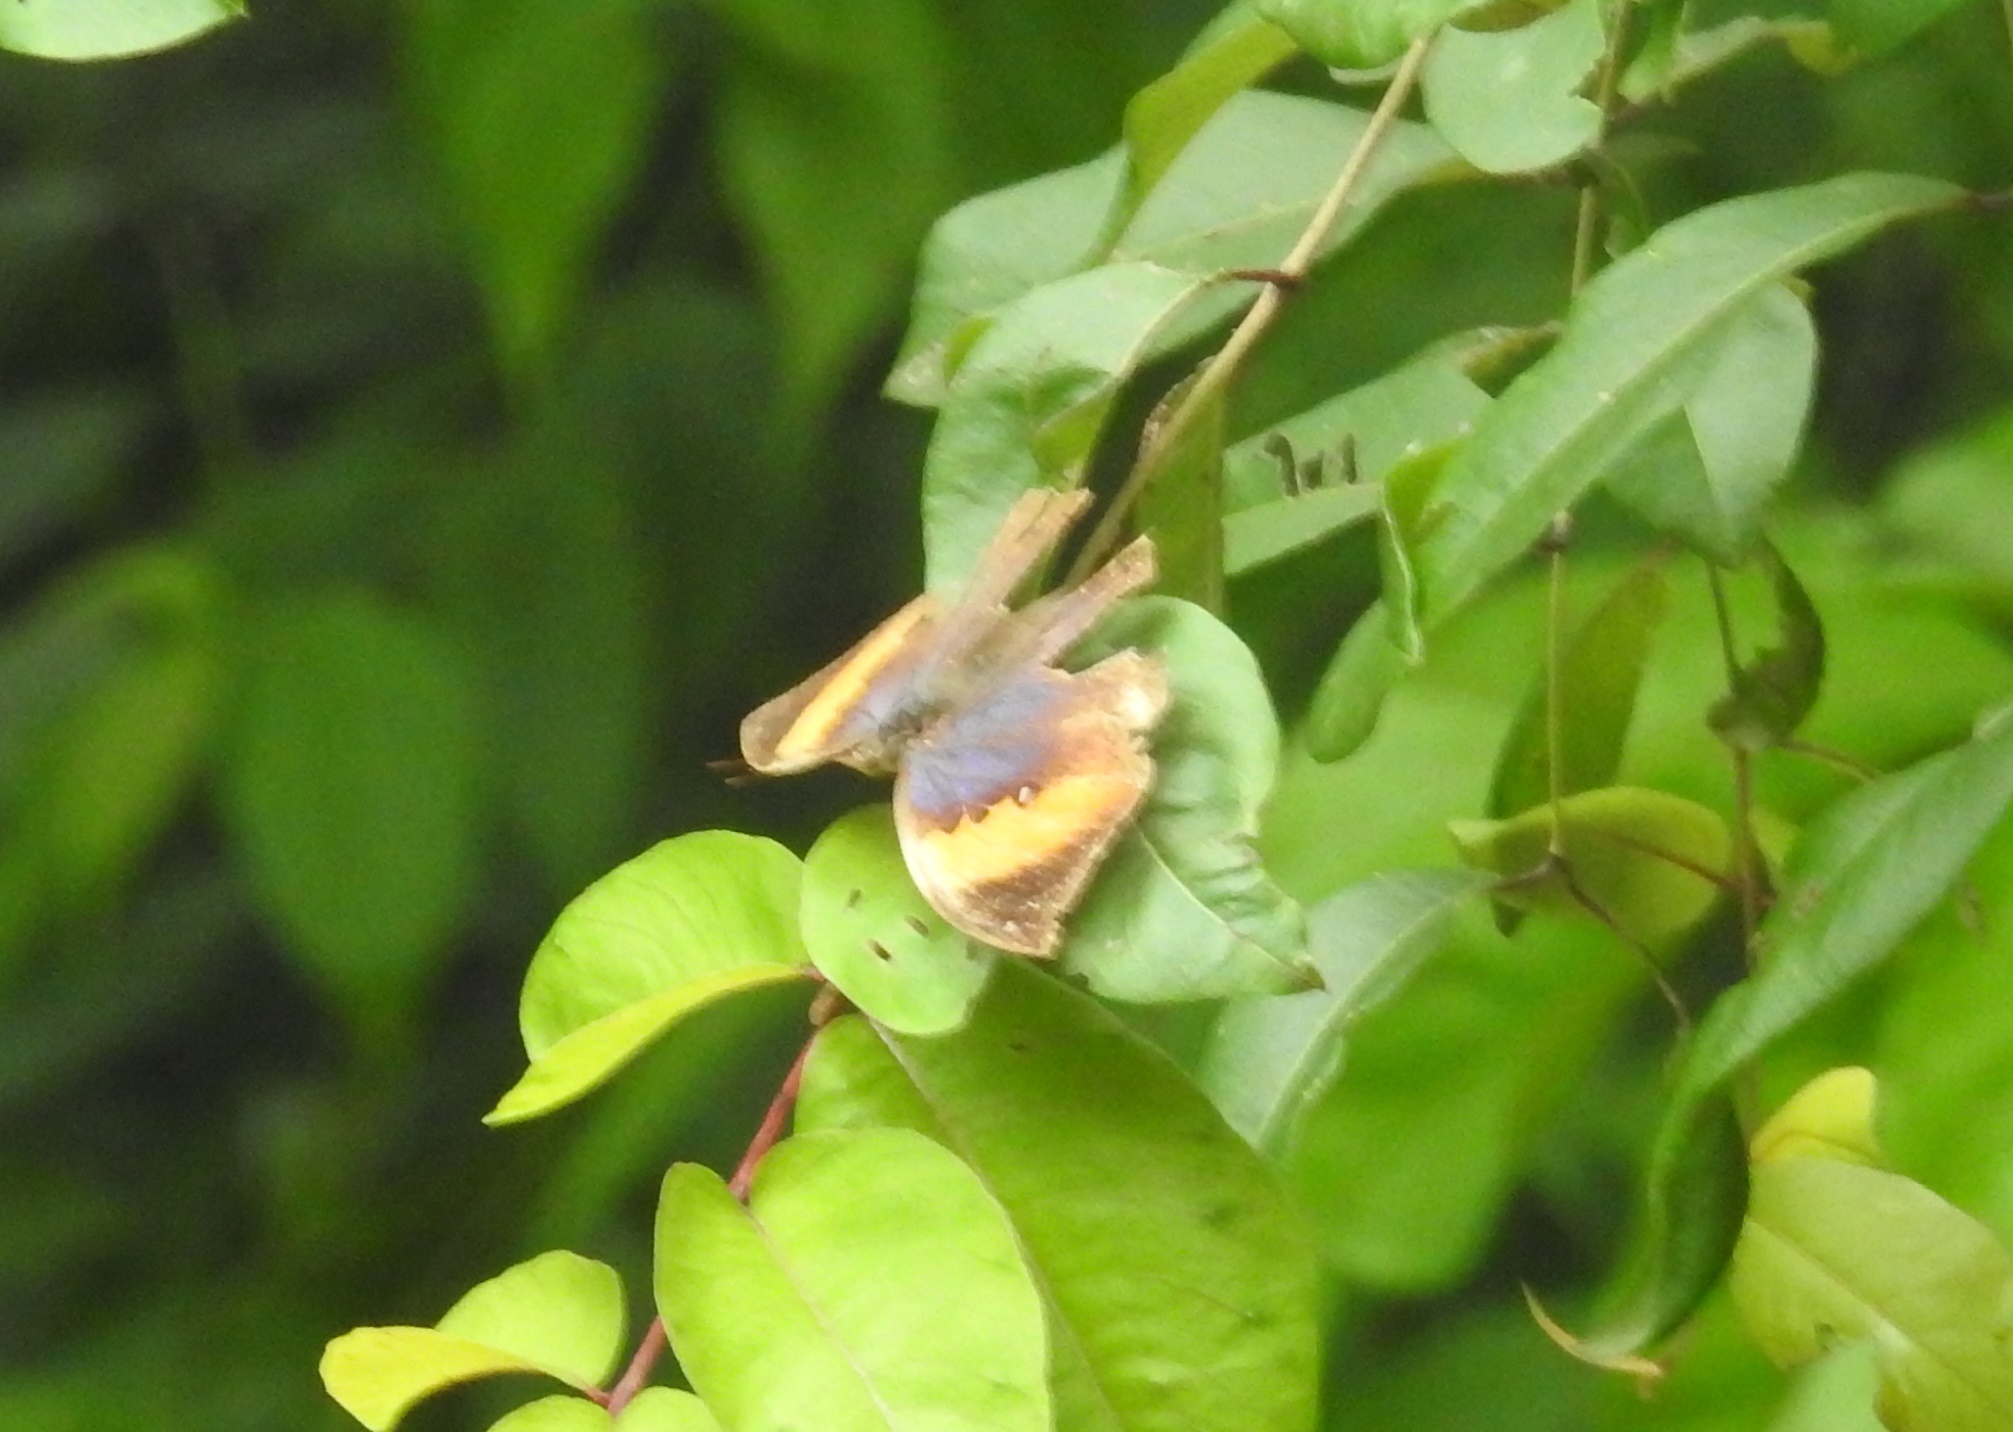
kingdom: Animalia
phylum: Arthropoda
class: Insecta
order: Lepidoptera
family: Nymphalidae
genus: Kallima
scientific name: Kallima inachus
